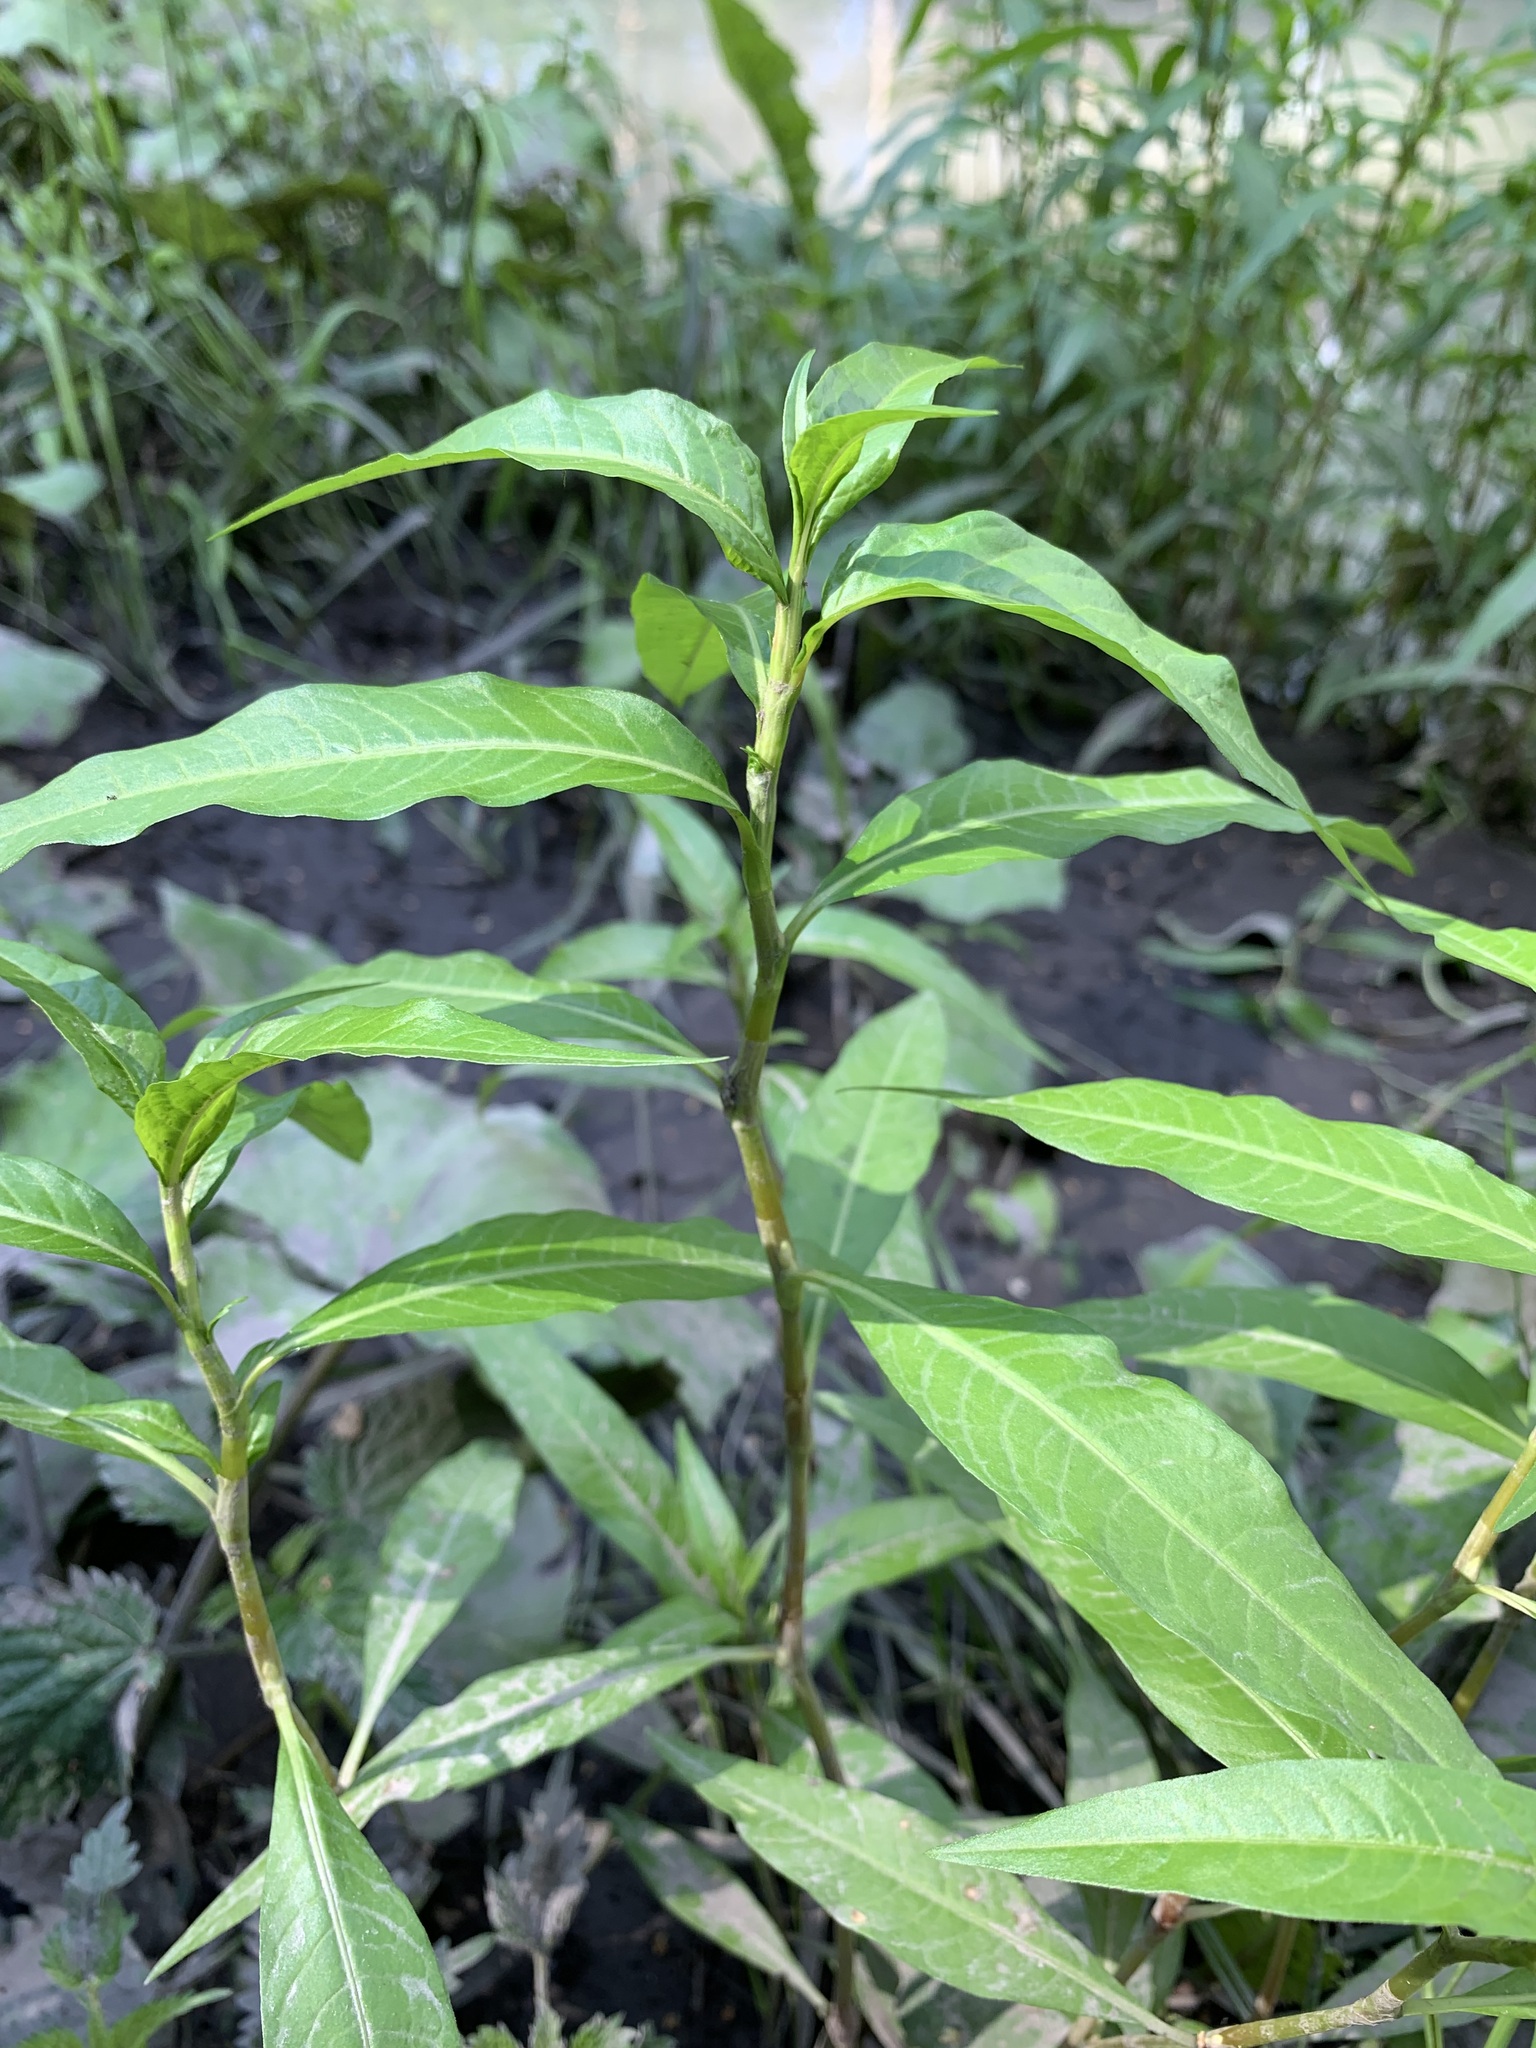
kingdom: Plantae
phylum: Tracheophyta
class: Magnoliopsida
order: Caryophyllales
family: Polygonaceae
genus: Persicaria
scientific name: Persicaria lapathifolia
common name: Curlytop knotweed
